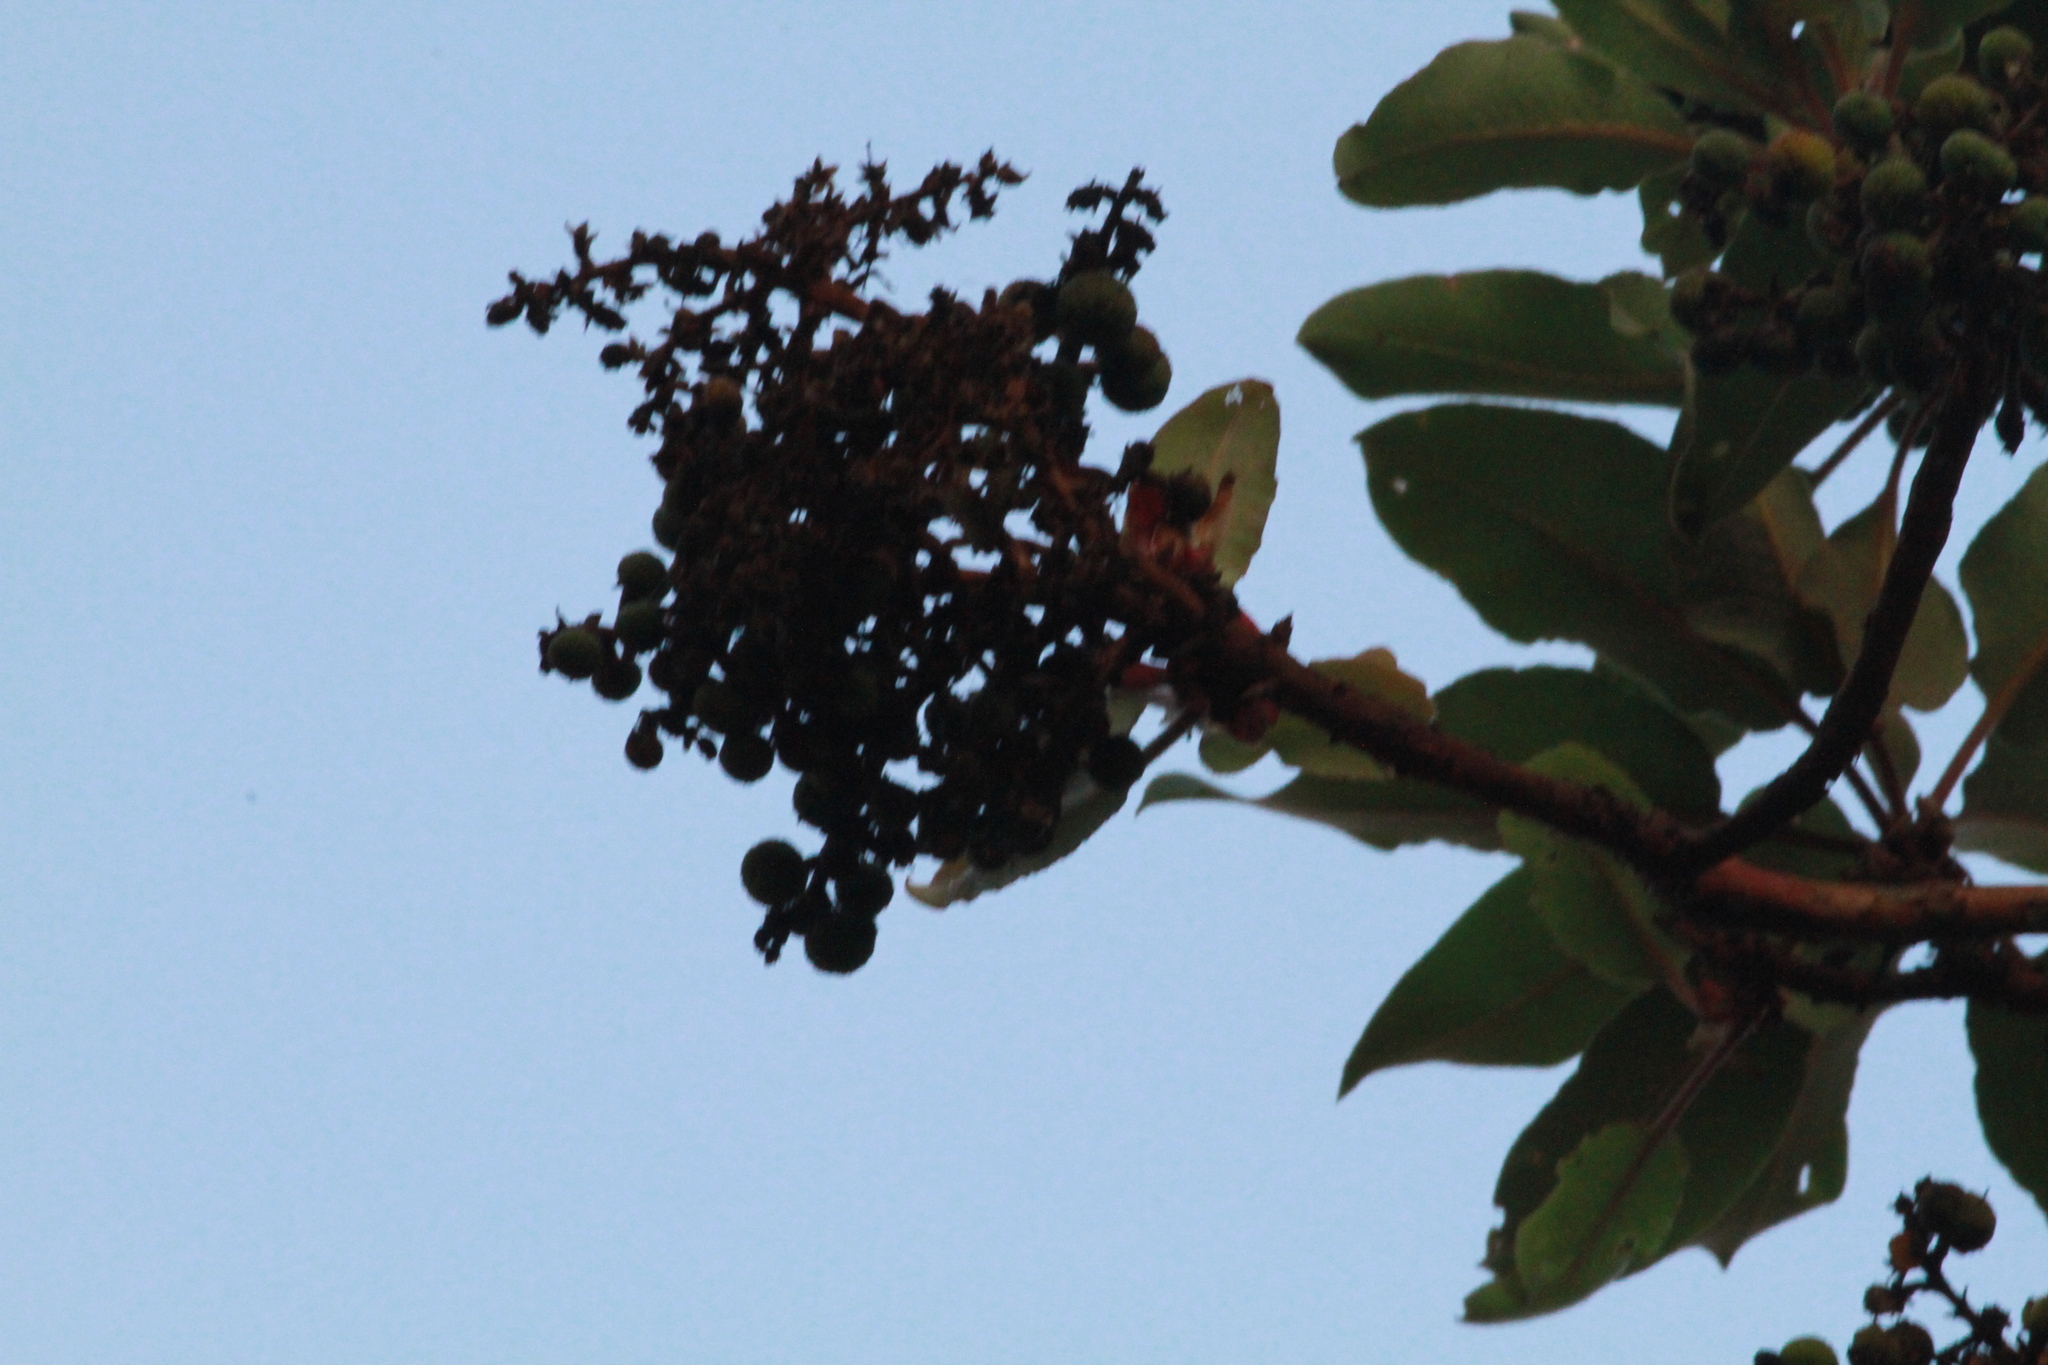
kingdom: Plantae
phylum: Tracheophyta
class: Magnoliopsida
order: Ericales
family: Ericaceae
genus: Arbutus
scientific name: Arbutus xalapensis
